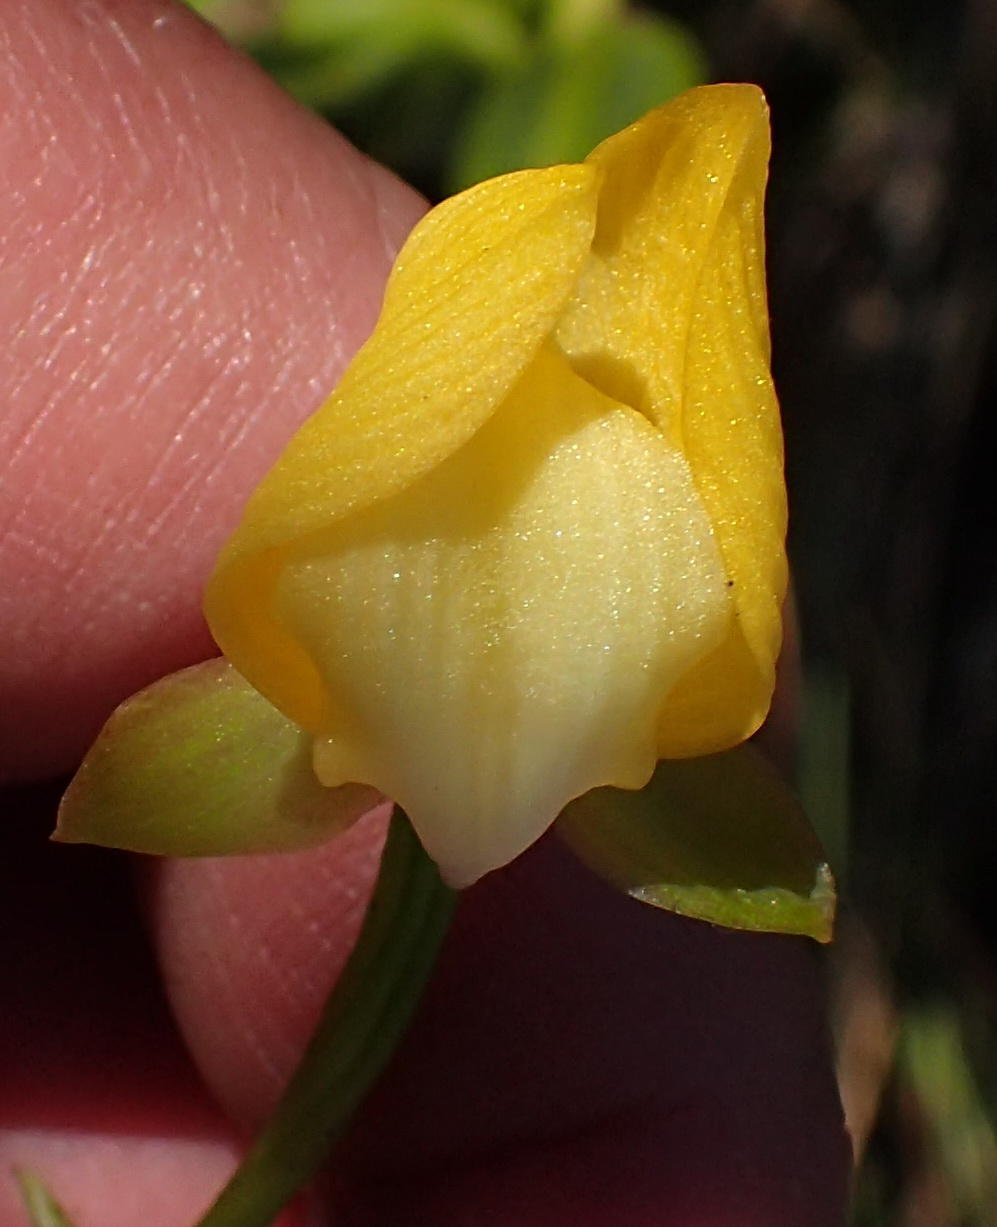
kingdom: Plantae
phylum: Tracheophyta
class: Liliopsida
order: Asparagales
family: Orchidaceae
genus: Eulophia
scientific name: Eulophia speciosa
